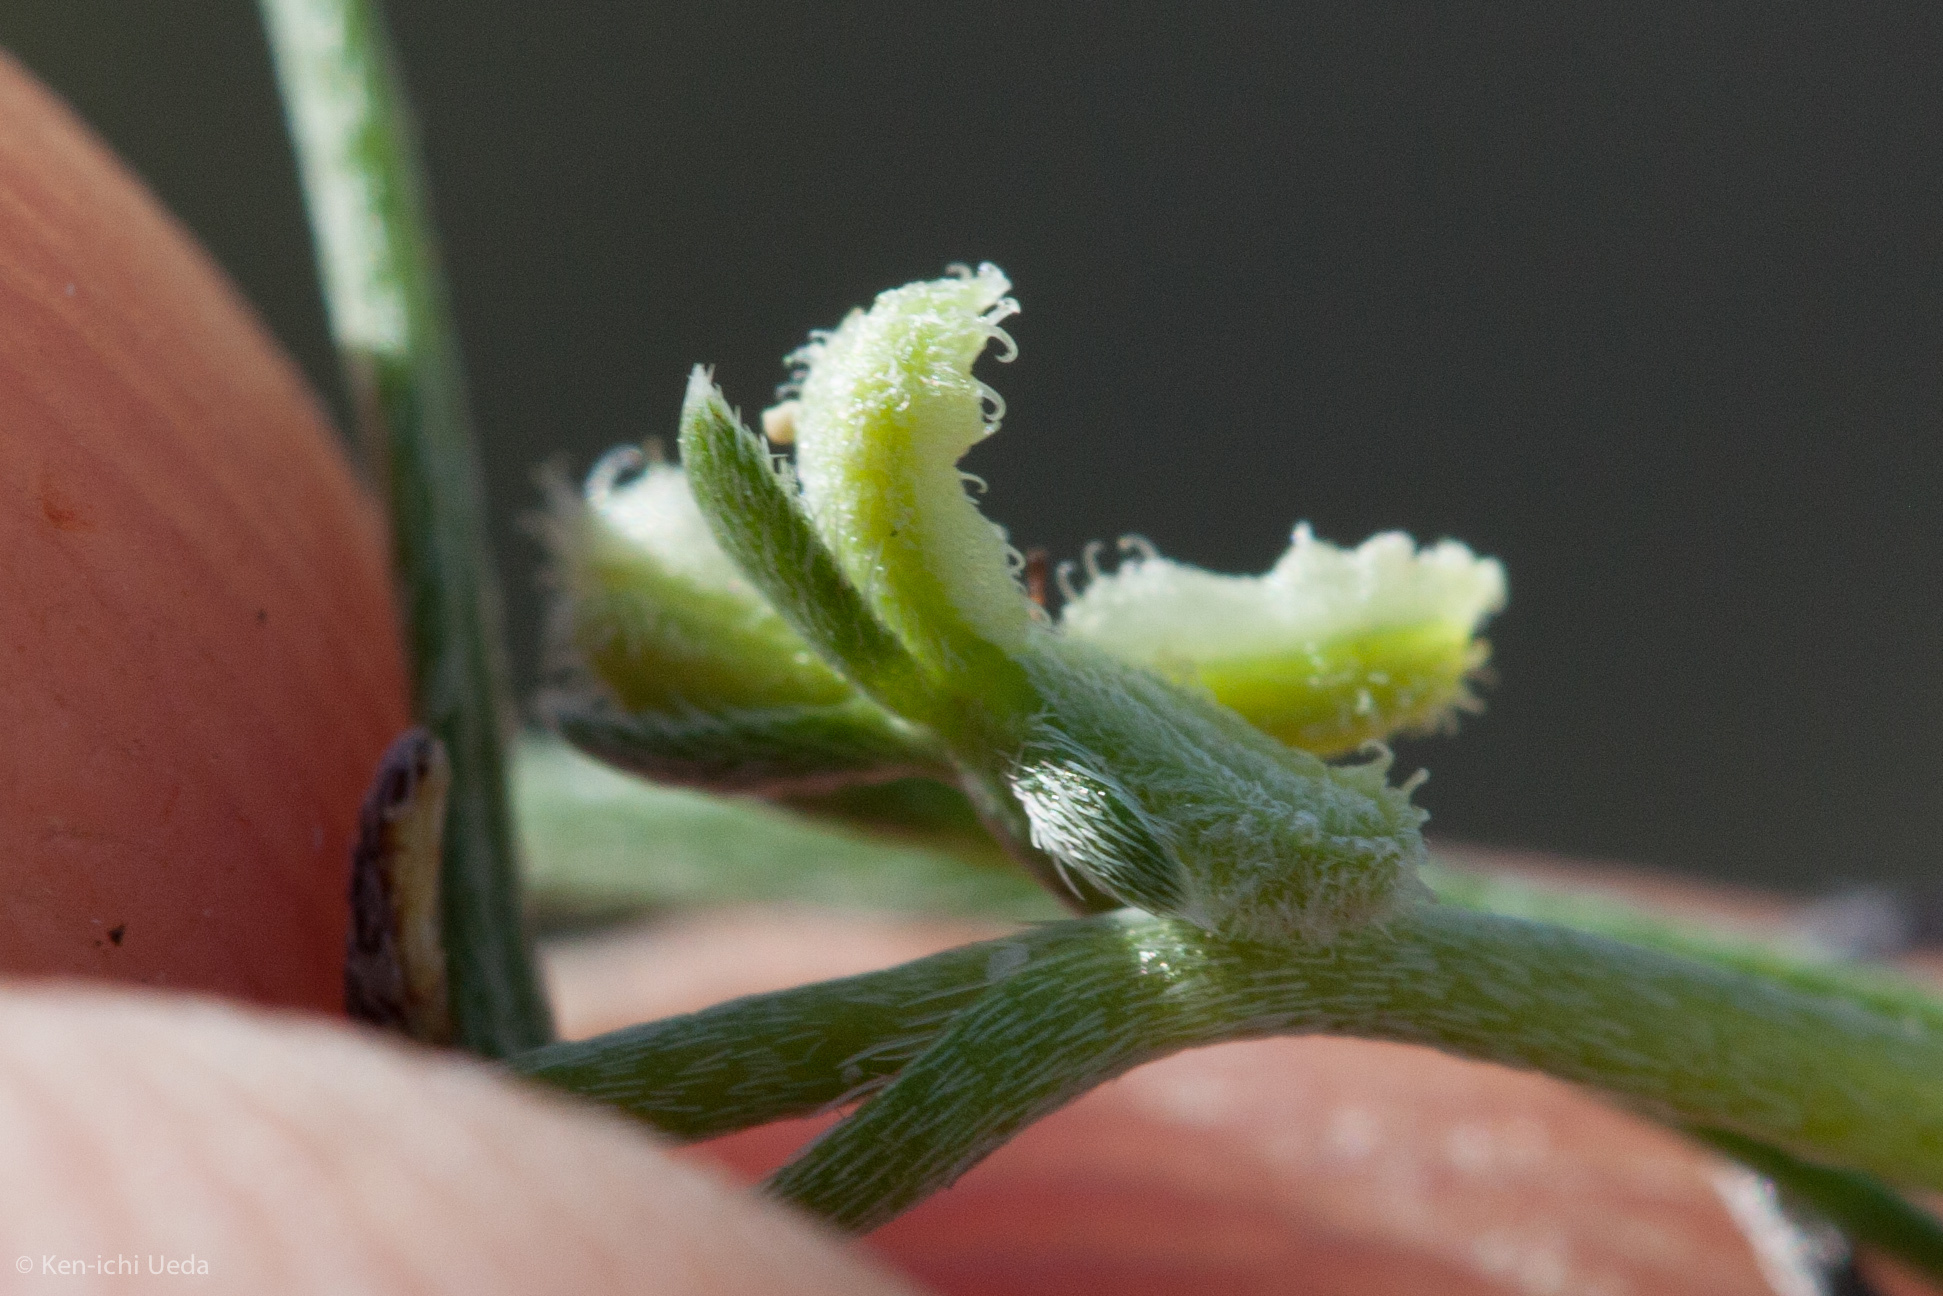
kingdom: Plantae
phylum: Tracheophyta
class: Magnoliopsida
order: Boraginales
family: Boraginaceae
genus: Pectocarya
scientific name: Pectocarya anisocarpa
